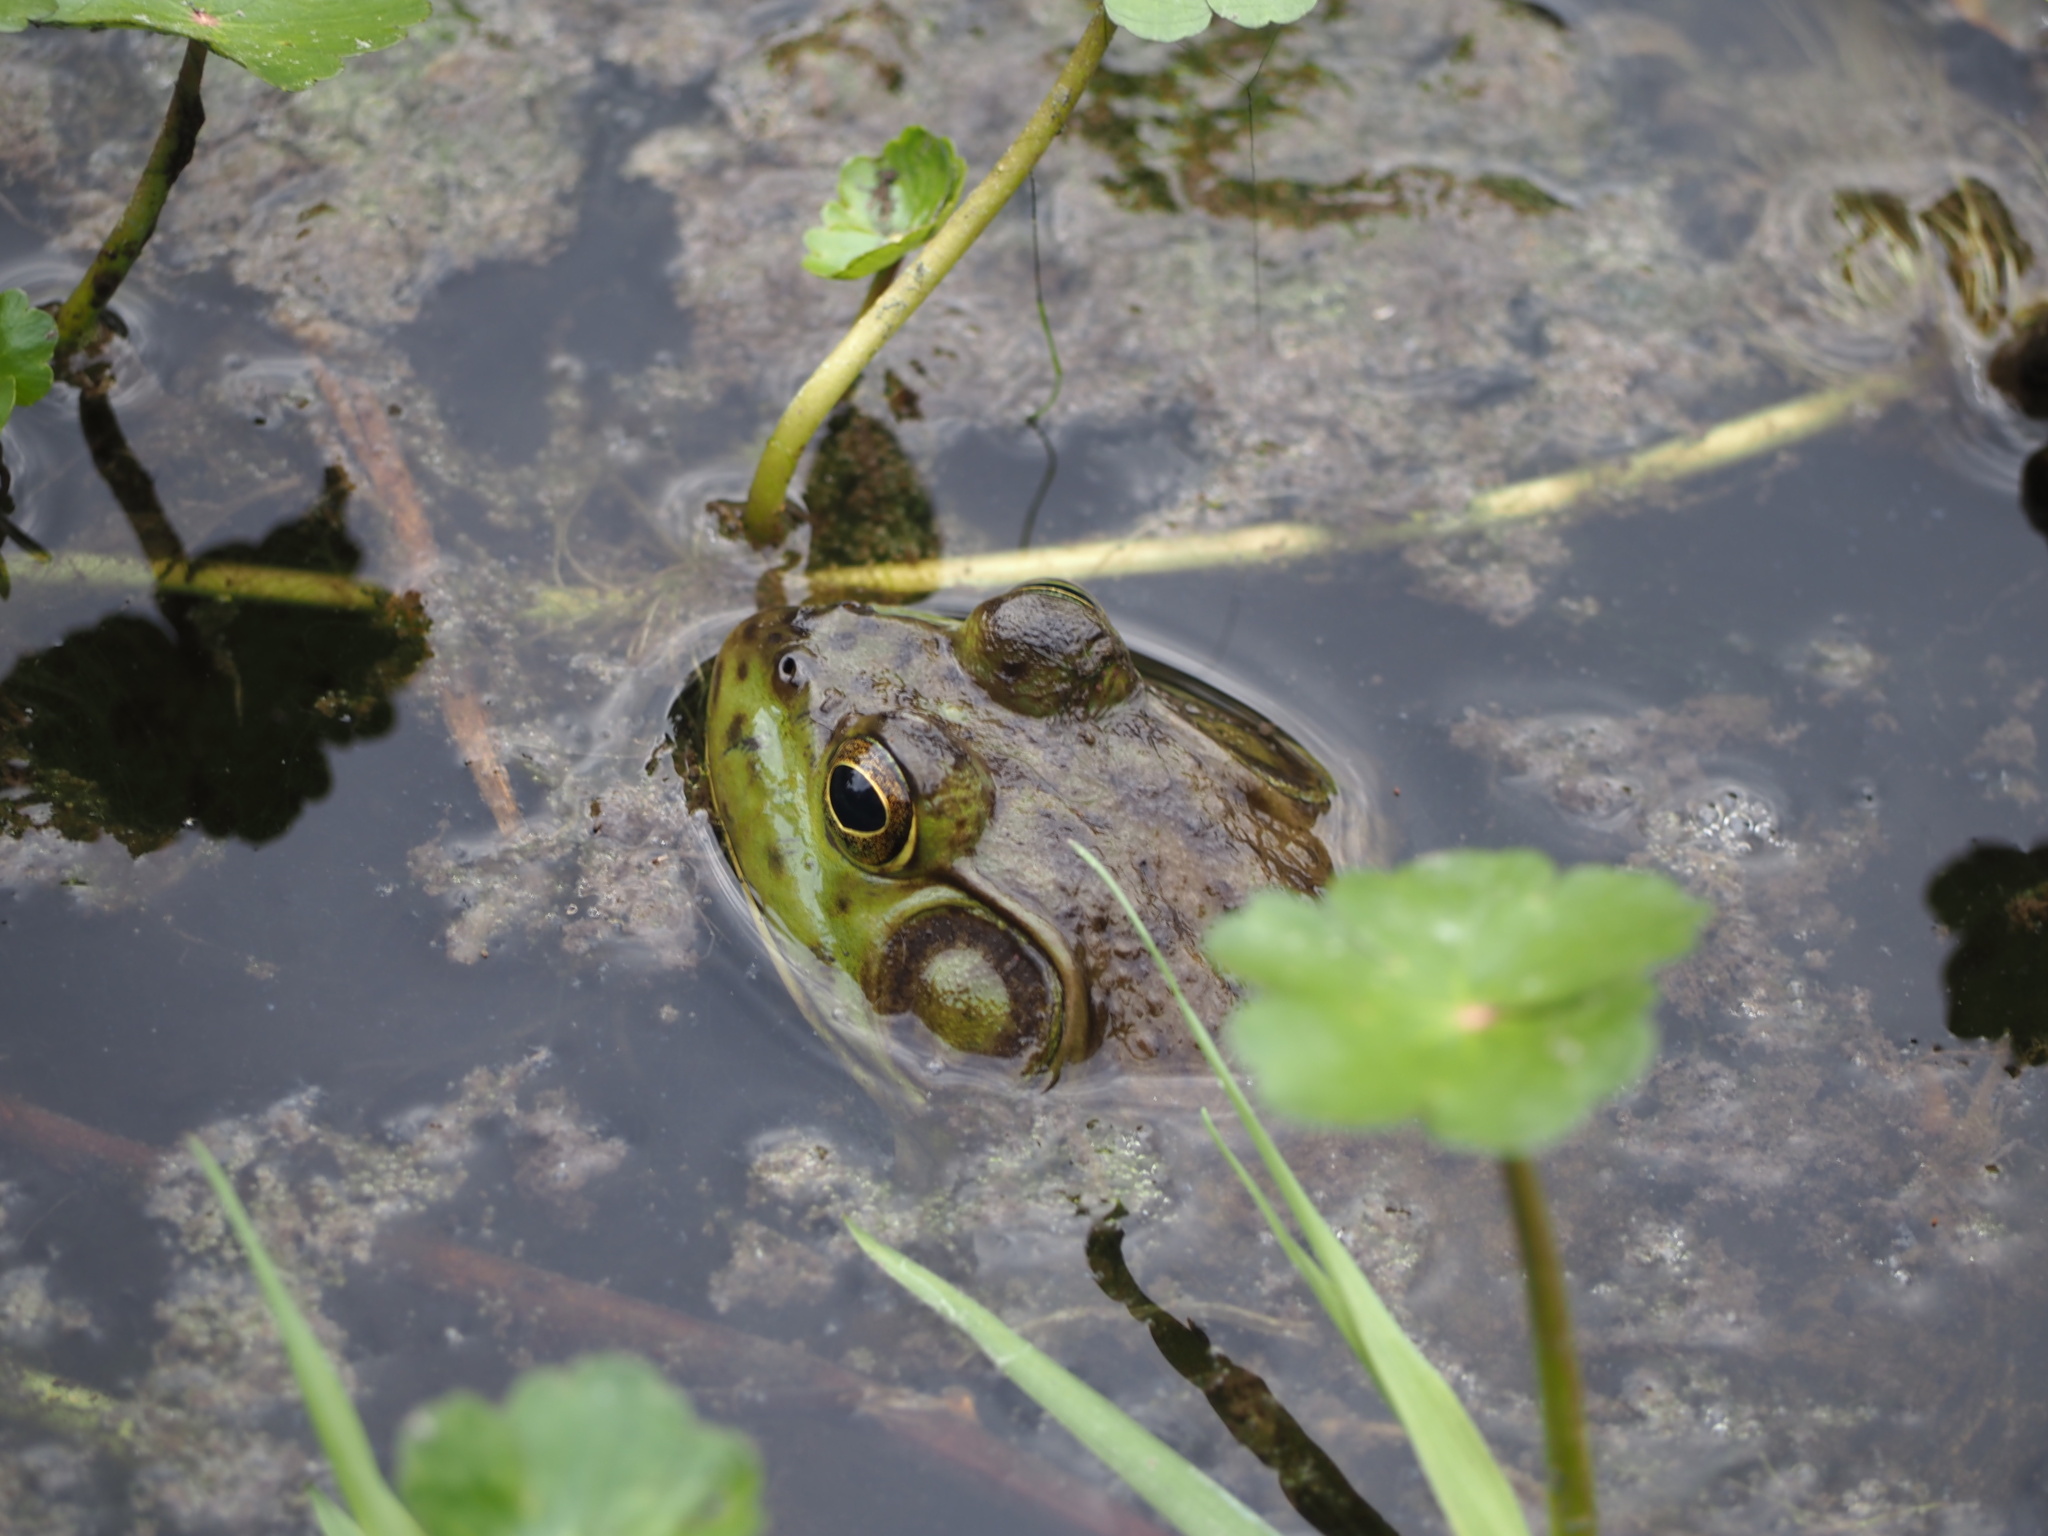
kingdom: Animalia
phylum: Chordata
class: Amphibia
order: Anura
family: Ranidae
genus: Lithobates
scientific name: Lithobates catesbeianus
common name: American bullfrog
